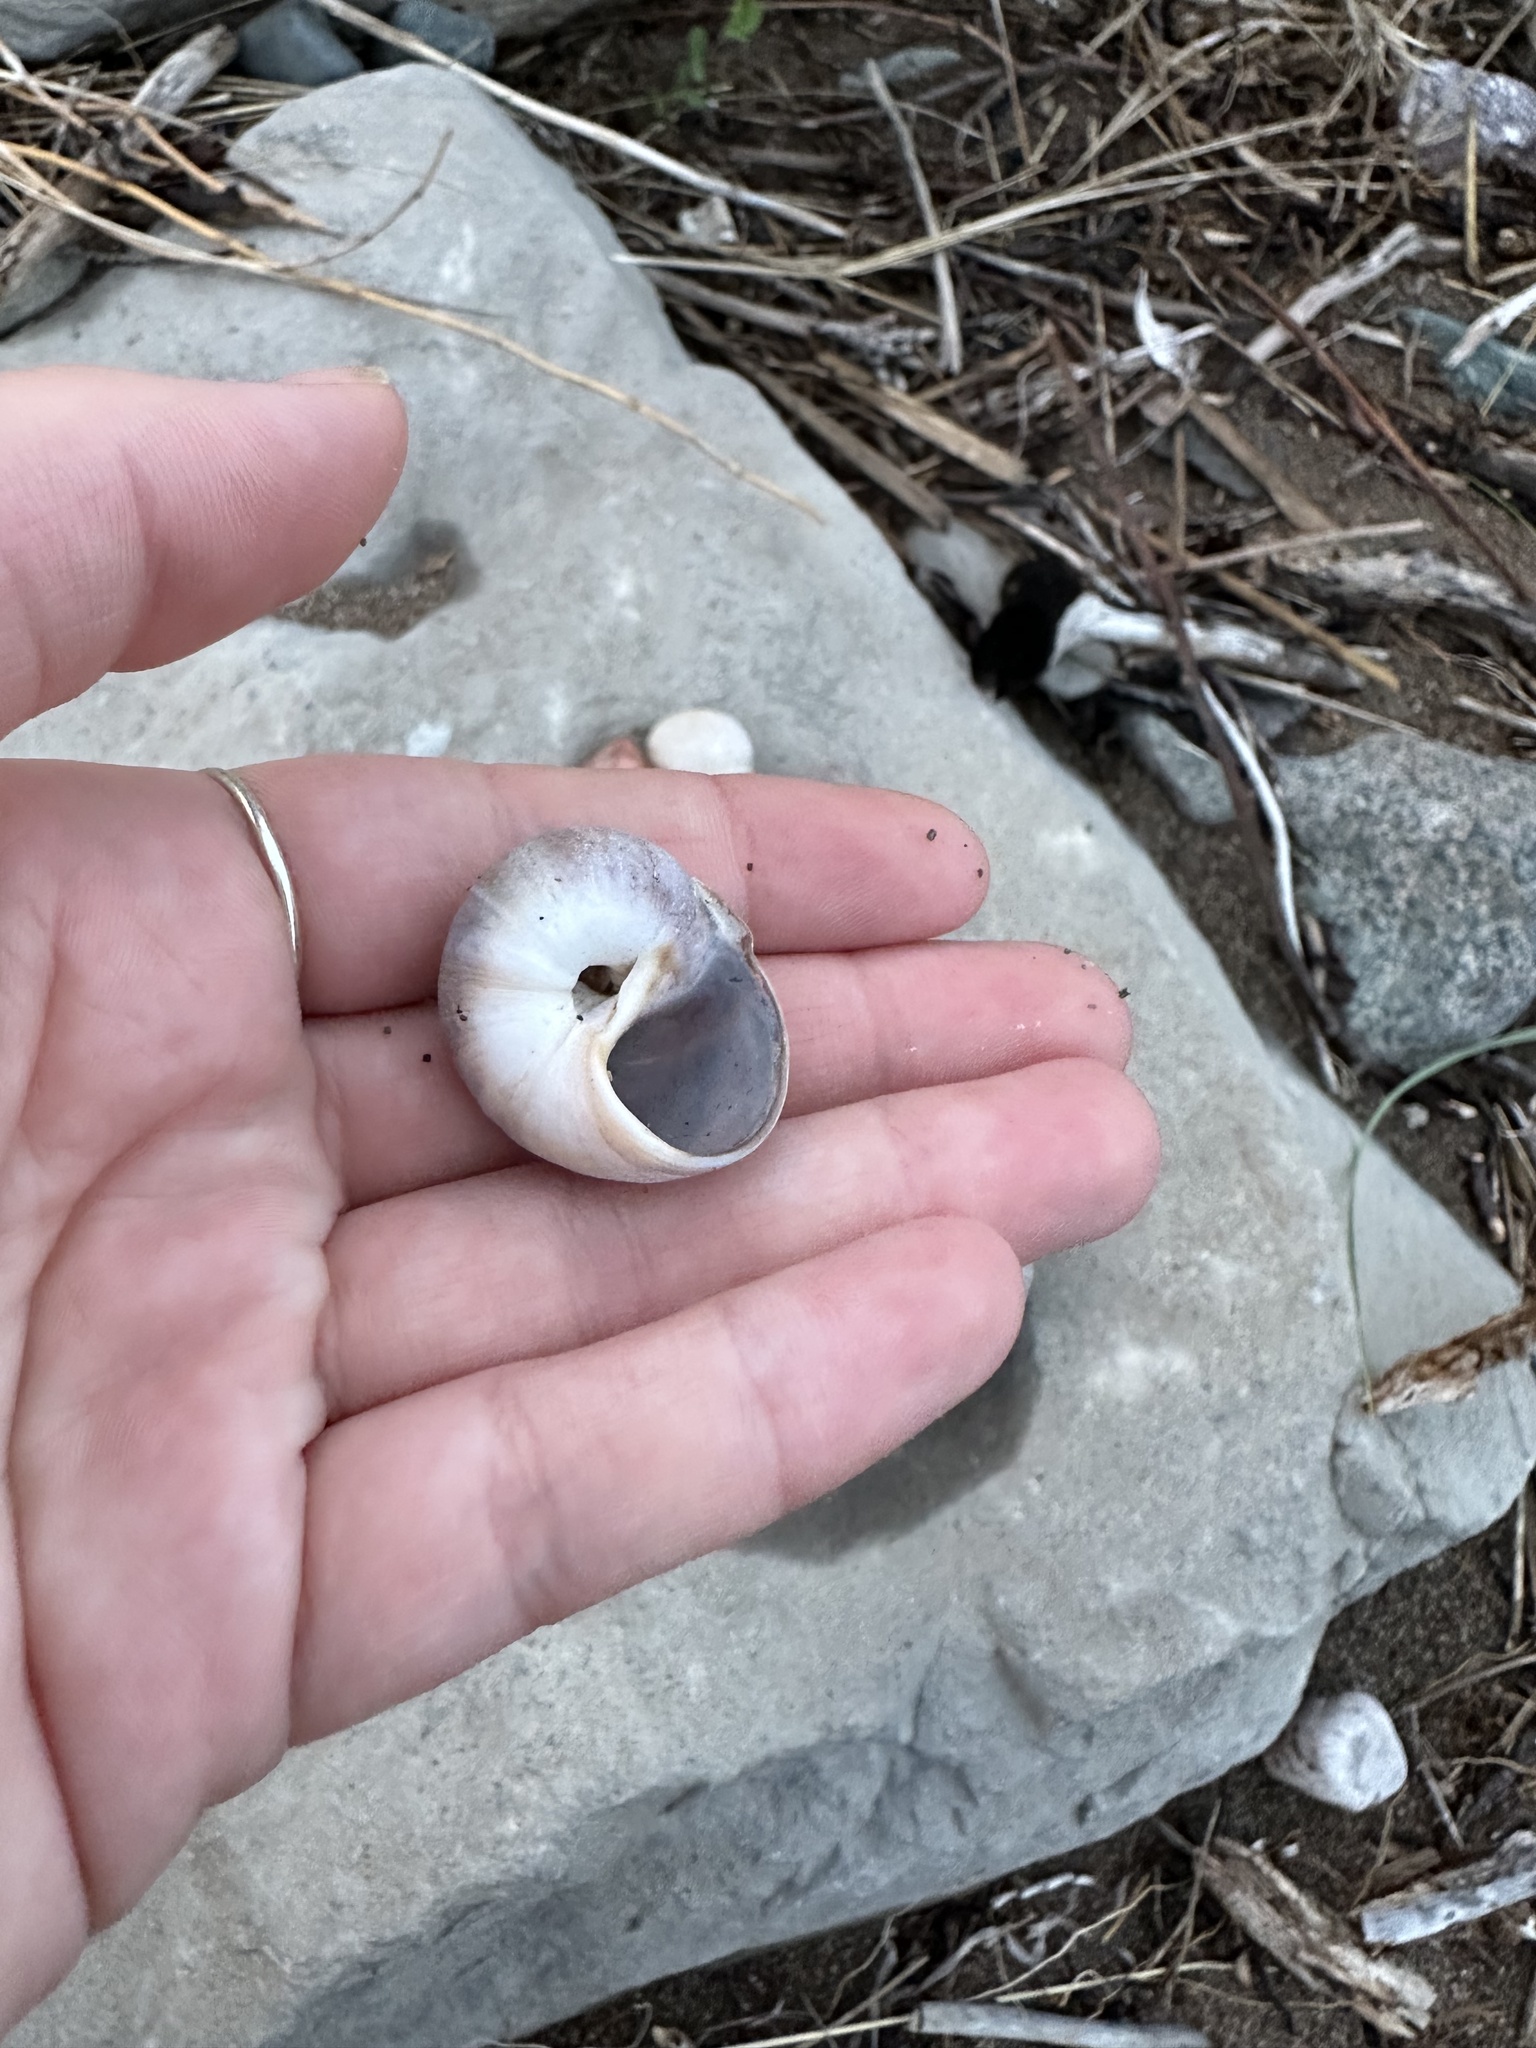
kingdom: Animalia
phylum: Mollusca
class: Gastropoda
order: Littorinimorpha
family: Naticidae
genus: Euspira
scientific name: Euspira heros
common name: Common northern moonsnail
